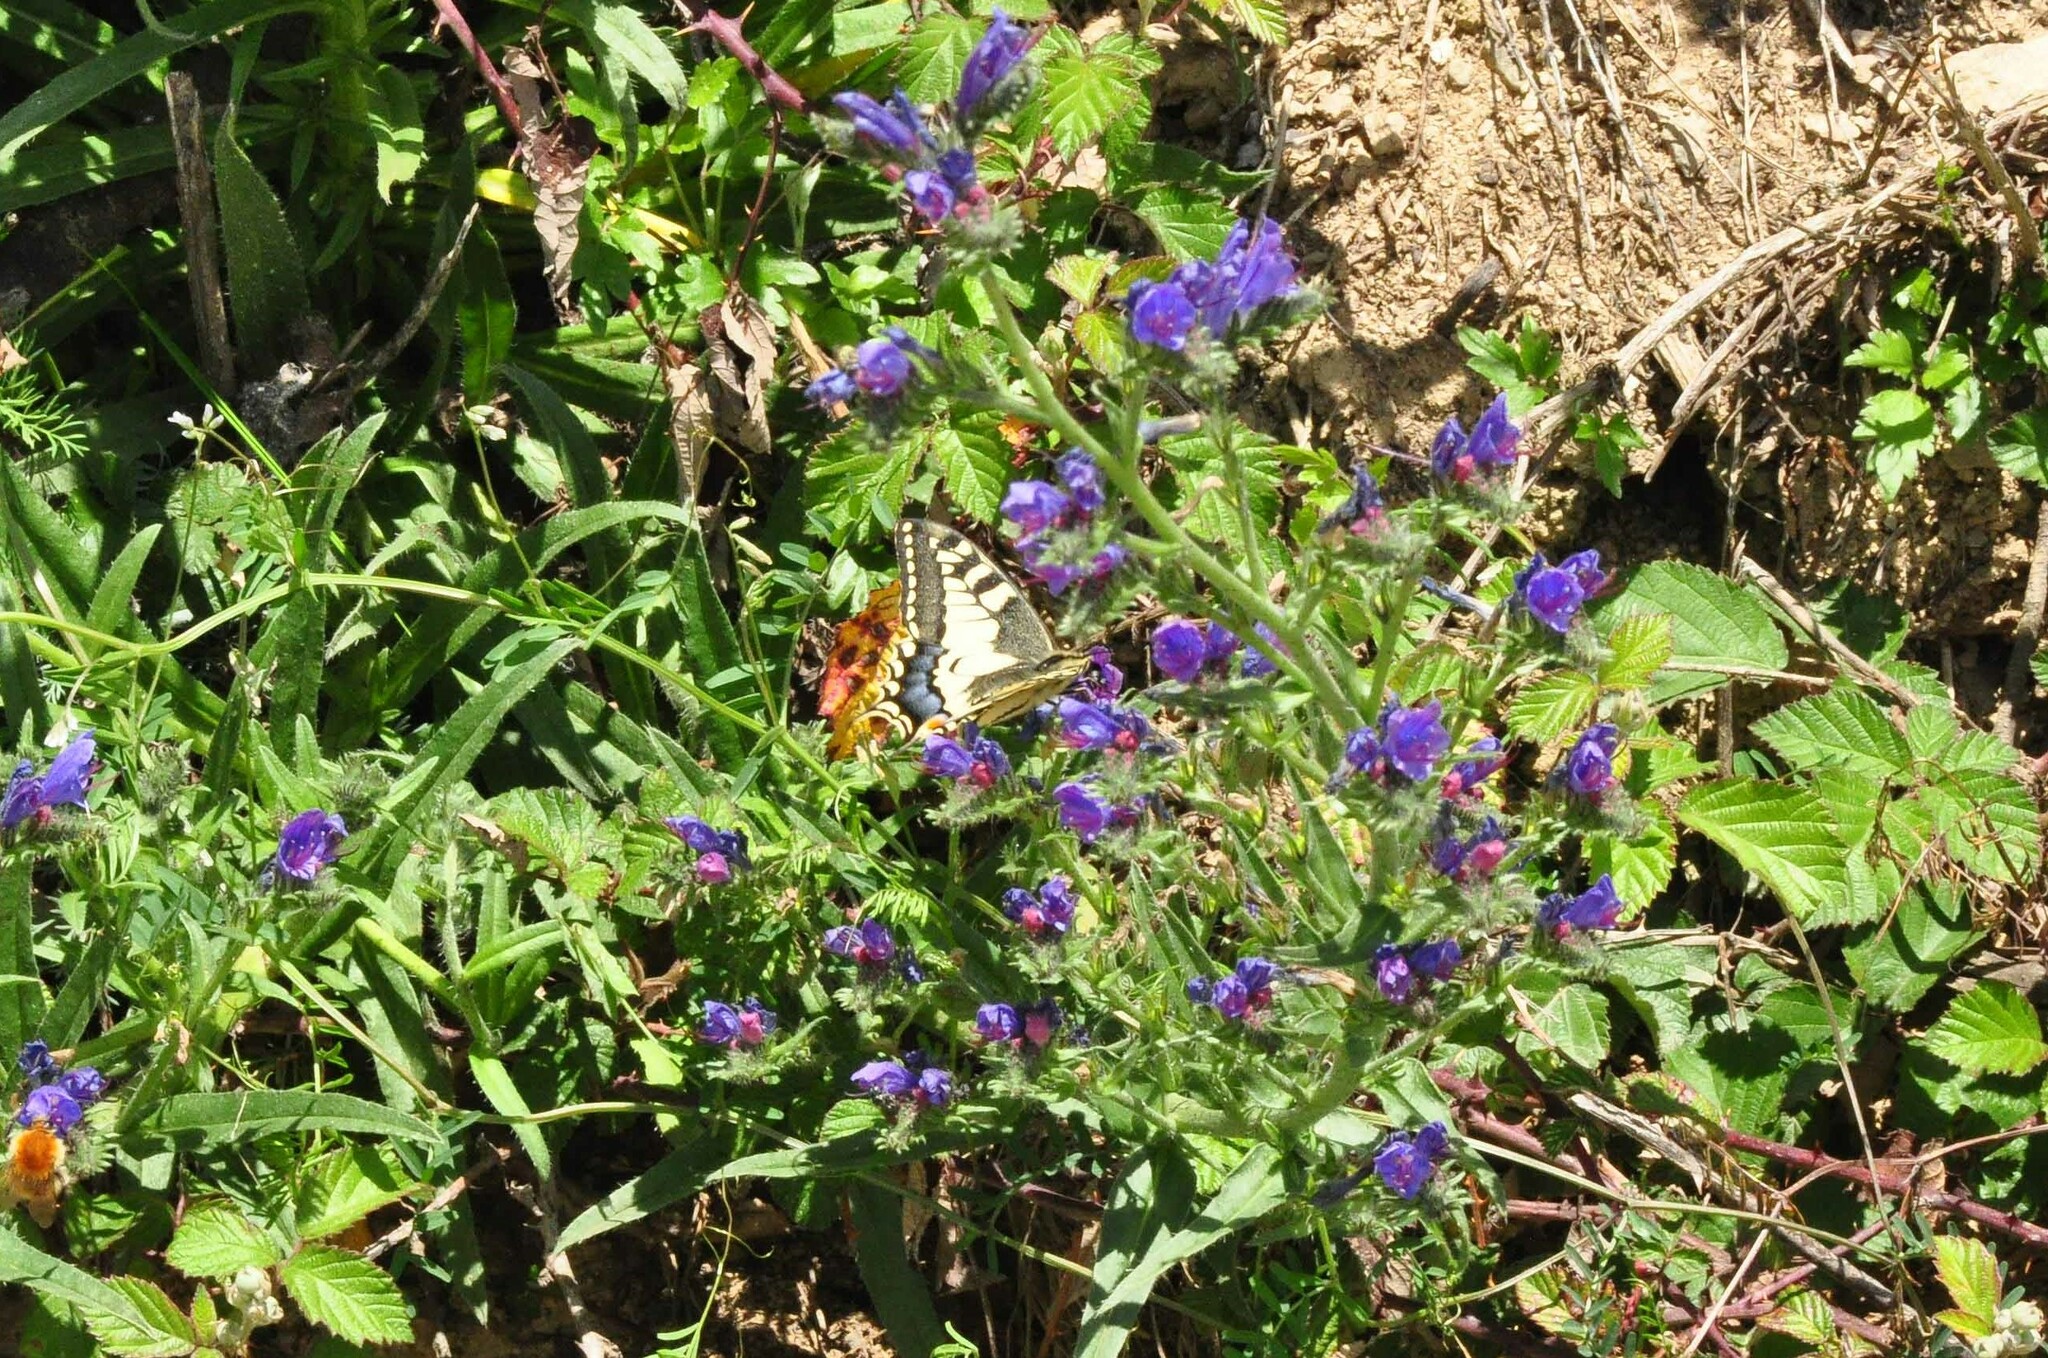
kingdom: Animalia
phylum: Arthropoda
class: Insecta
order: Lepidoptera
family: Papilionidae
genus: Papilio
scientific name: Papilio machaon
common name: Swallowtail
